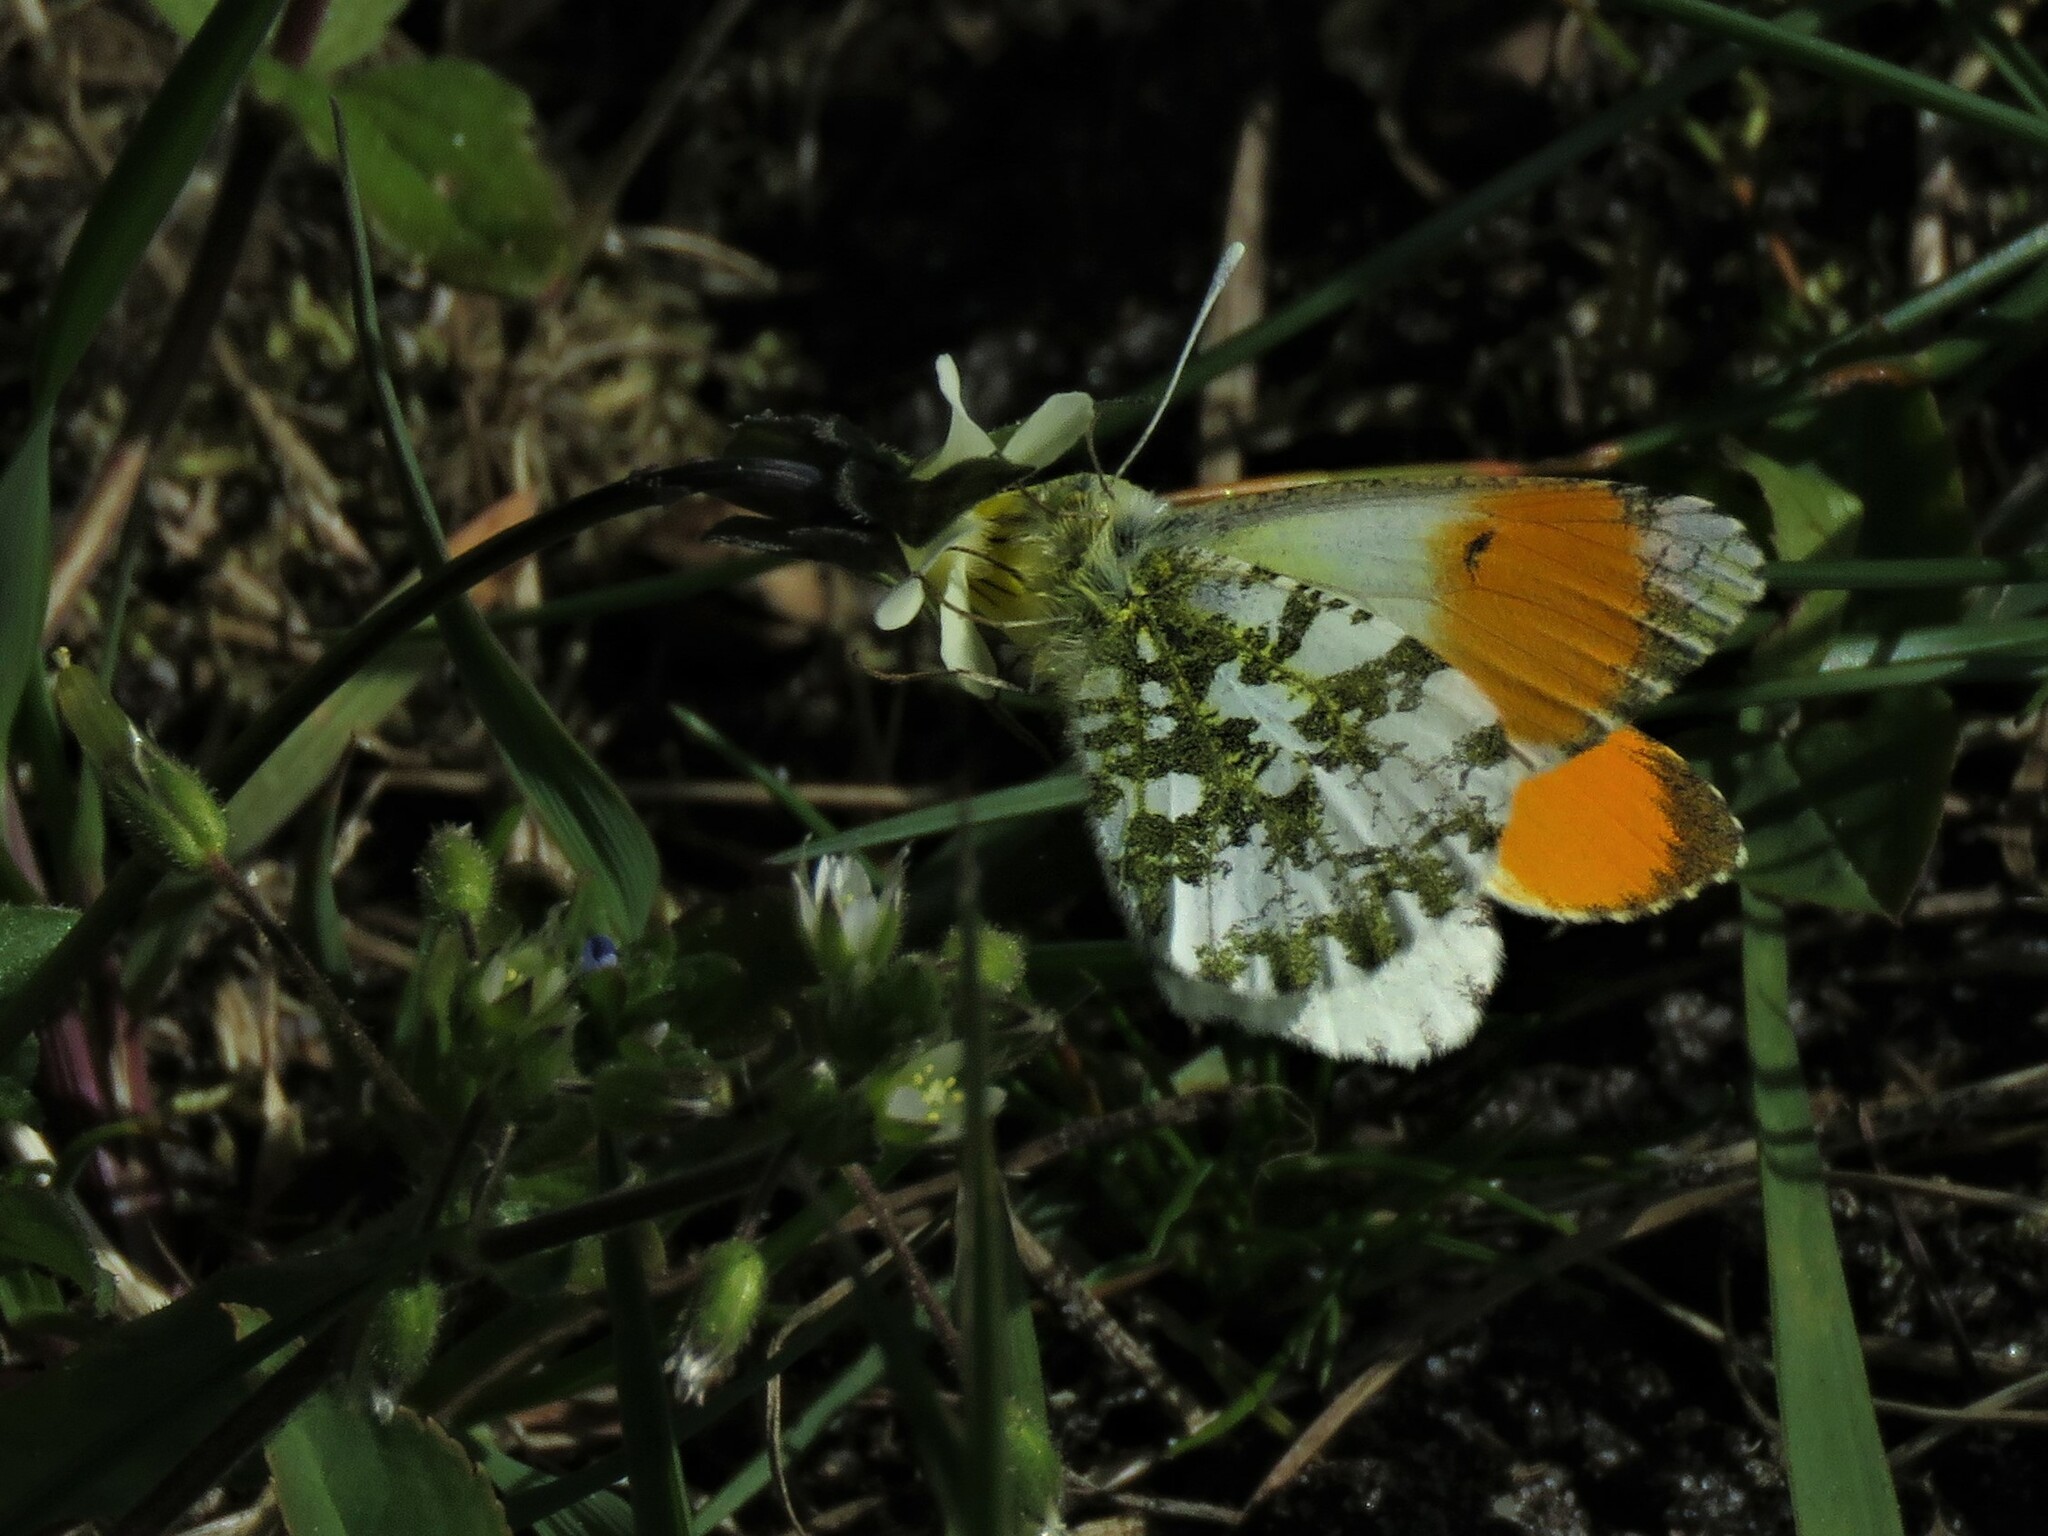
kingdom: Animalia
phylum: Arthropoda
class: Insecta
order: Lepidoptera
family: Pieridae
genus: Anthocharis
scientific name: Anthocharis cardamines
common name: Orange-tip
